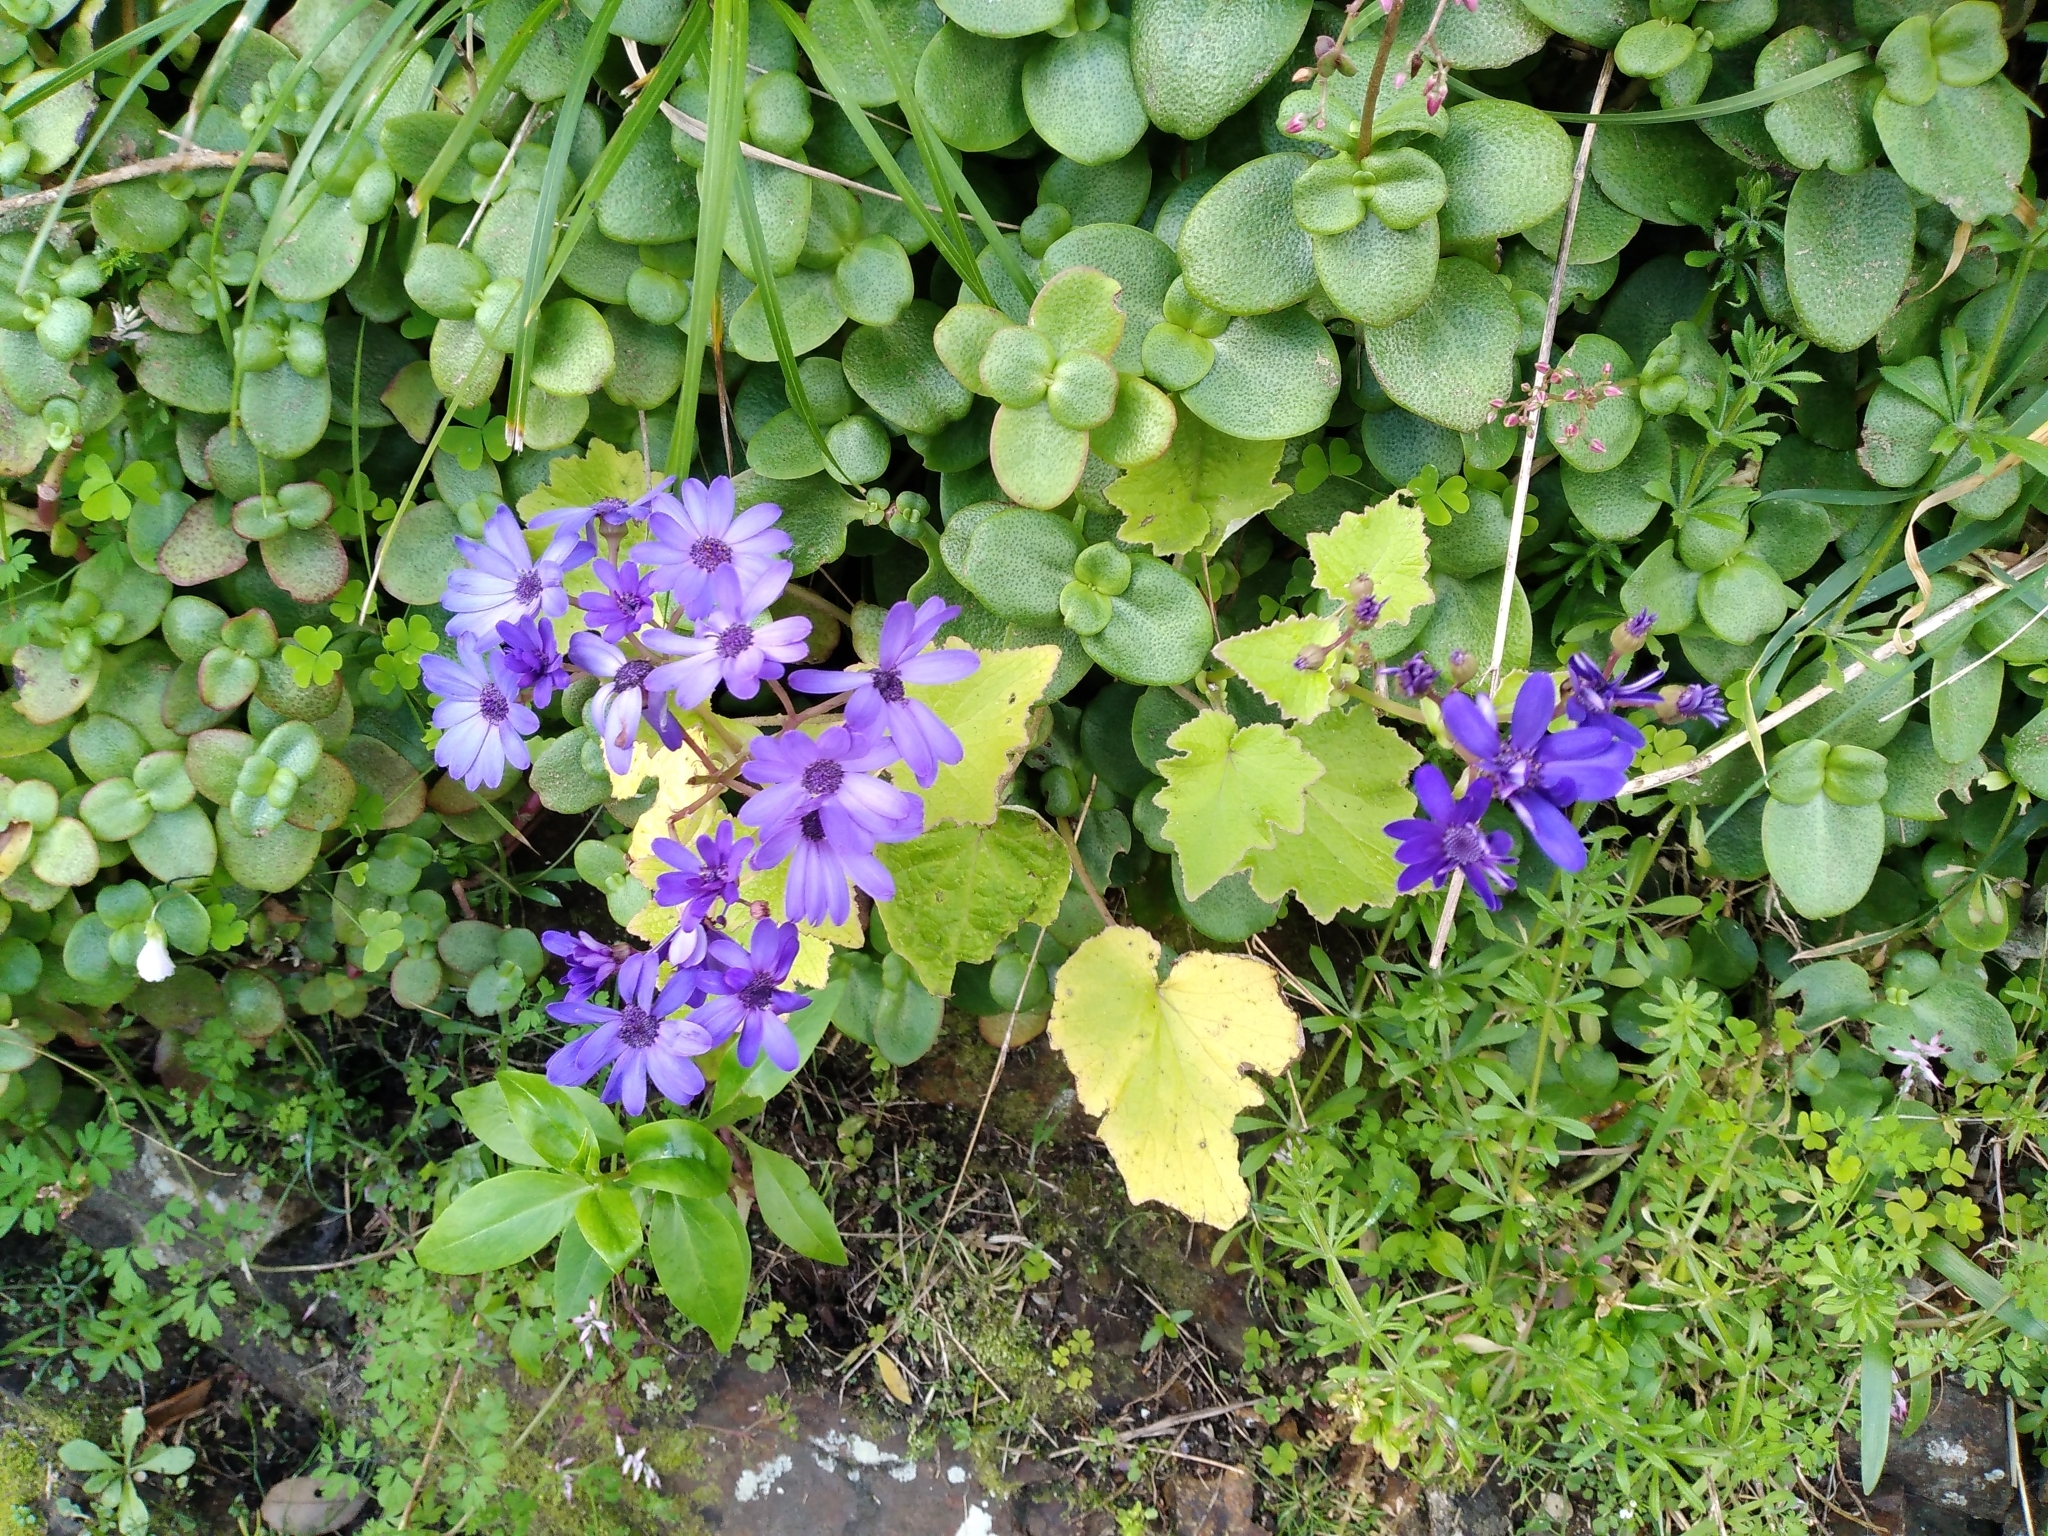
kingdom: Plantae
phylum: Tracheophyta
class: Magnoliopsida
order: Asterales
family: Asteraceae
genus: Pericallis
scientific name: Pericallis hybrida
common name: Cineraria
